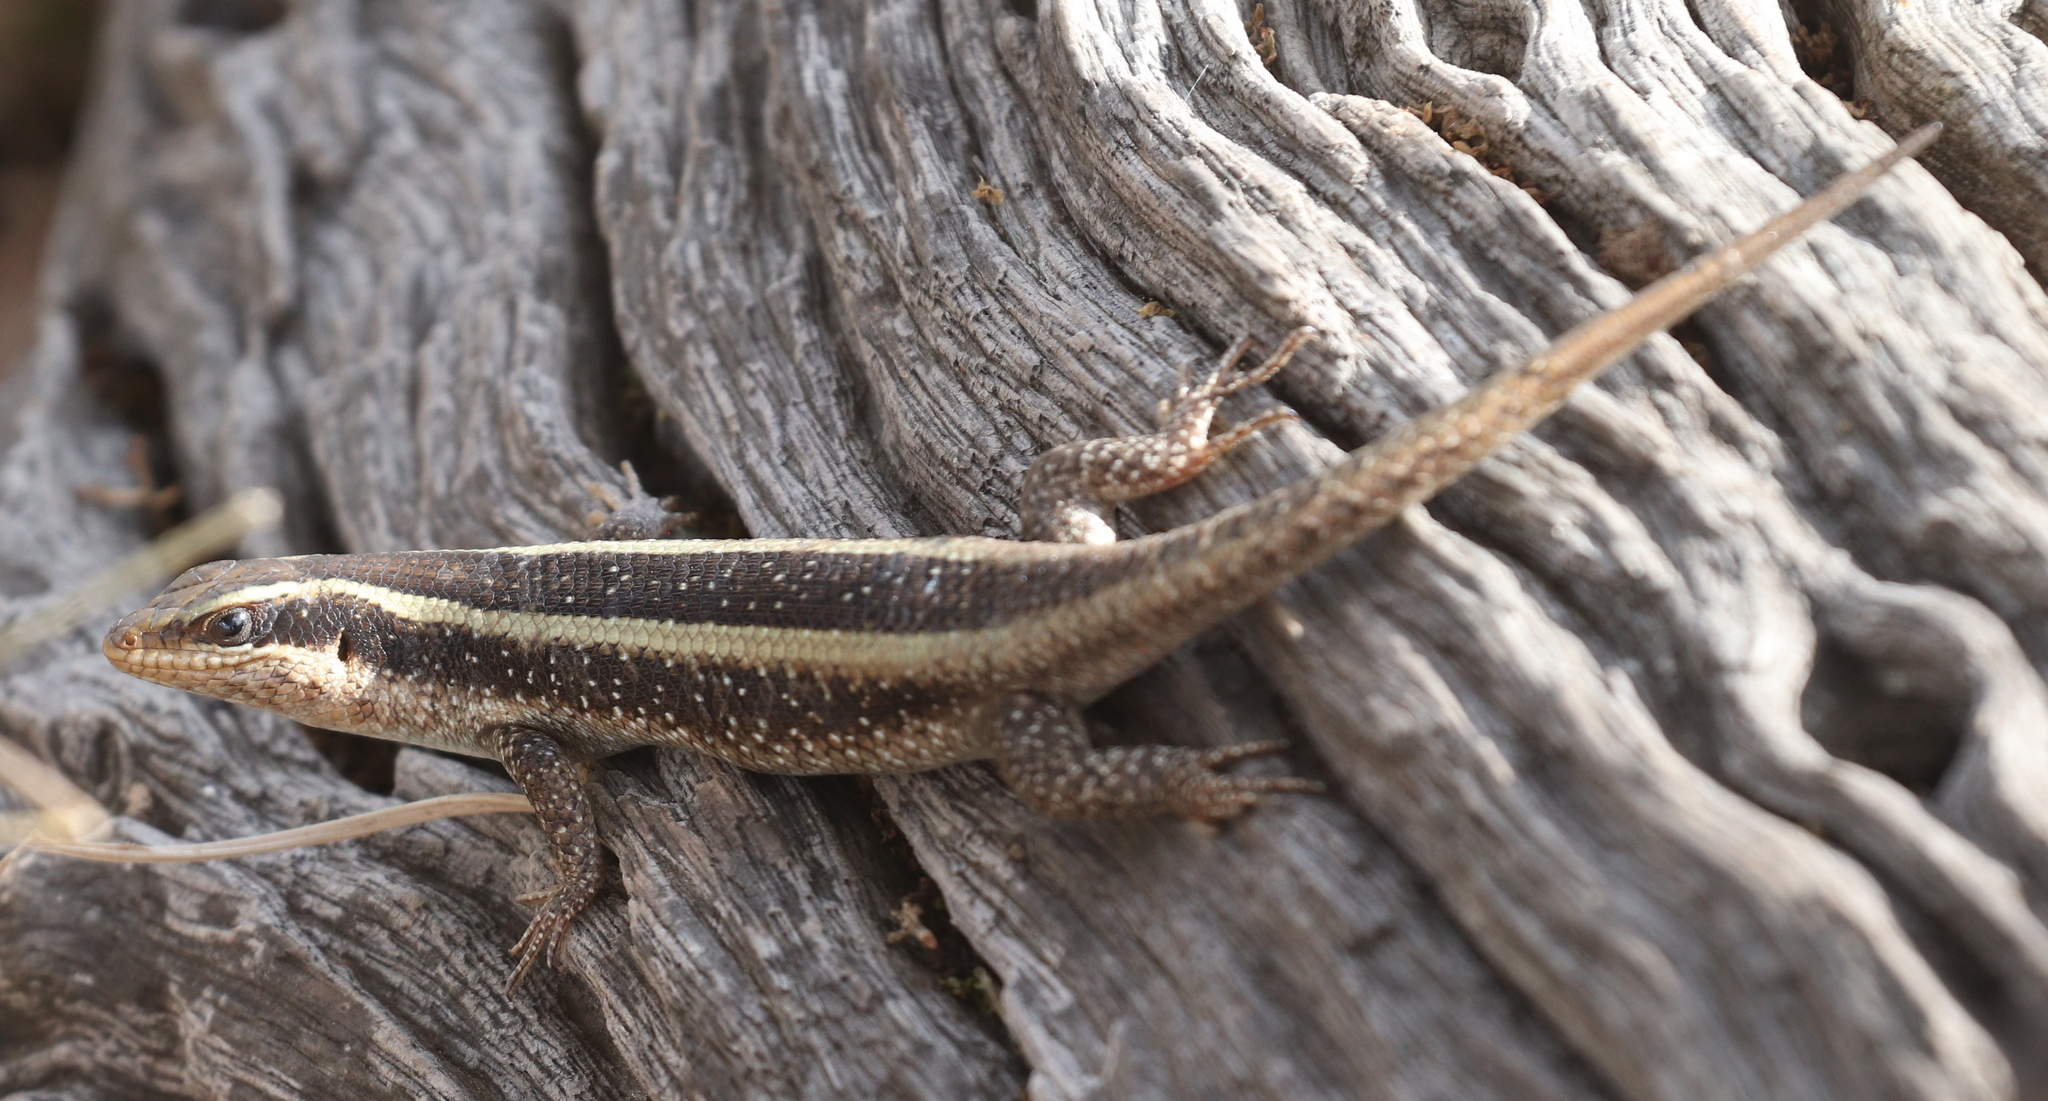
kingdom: Animalia
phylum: Chordata
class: Squamata
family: Scincidae
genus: Trachylepis
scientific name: Trachylepis striata
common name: African striped mabuya
